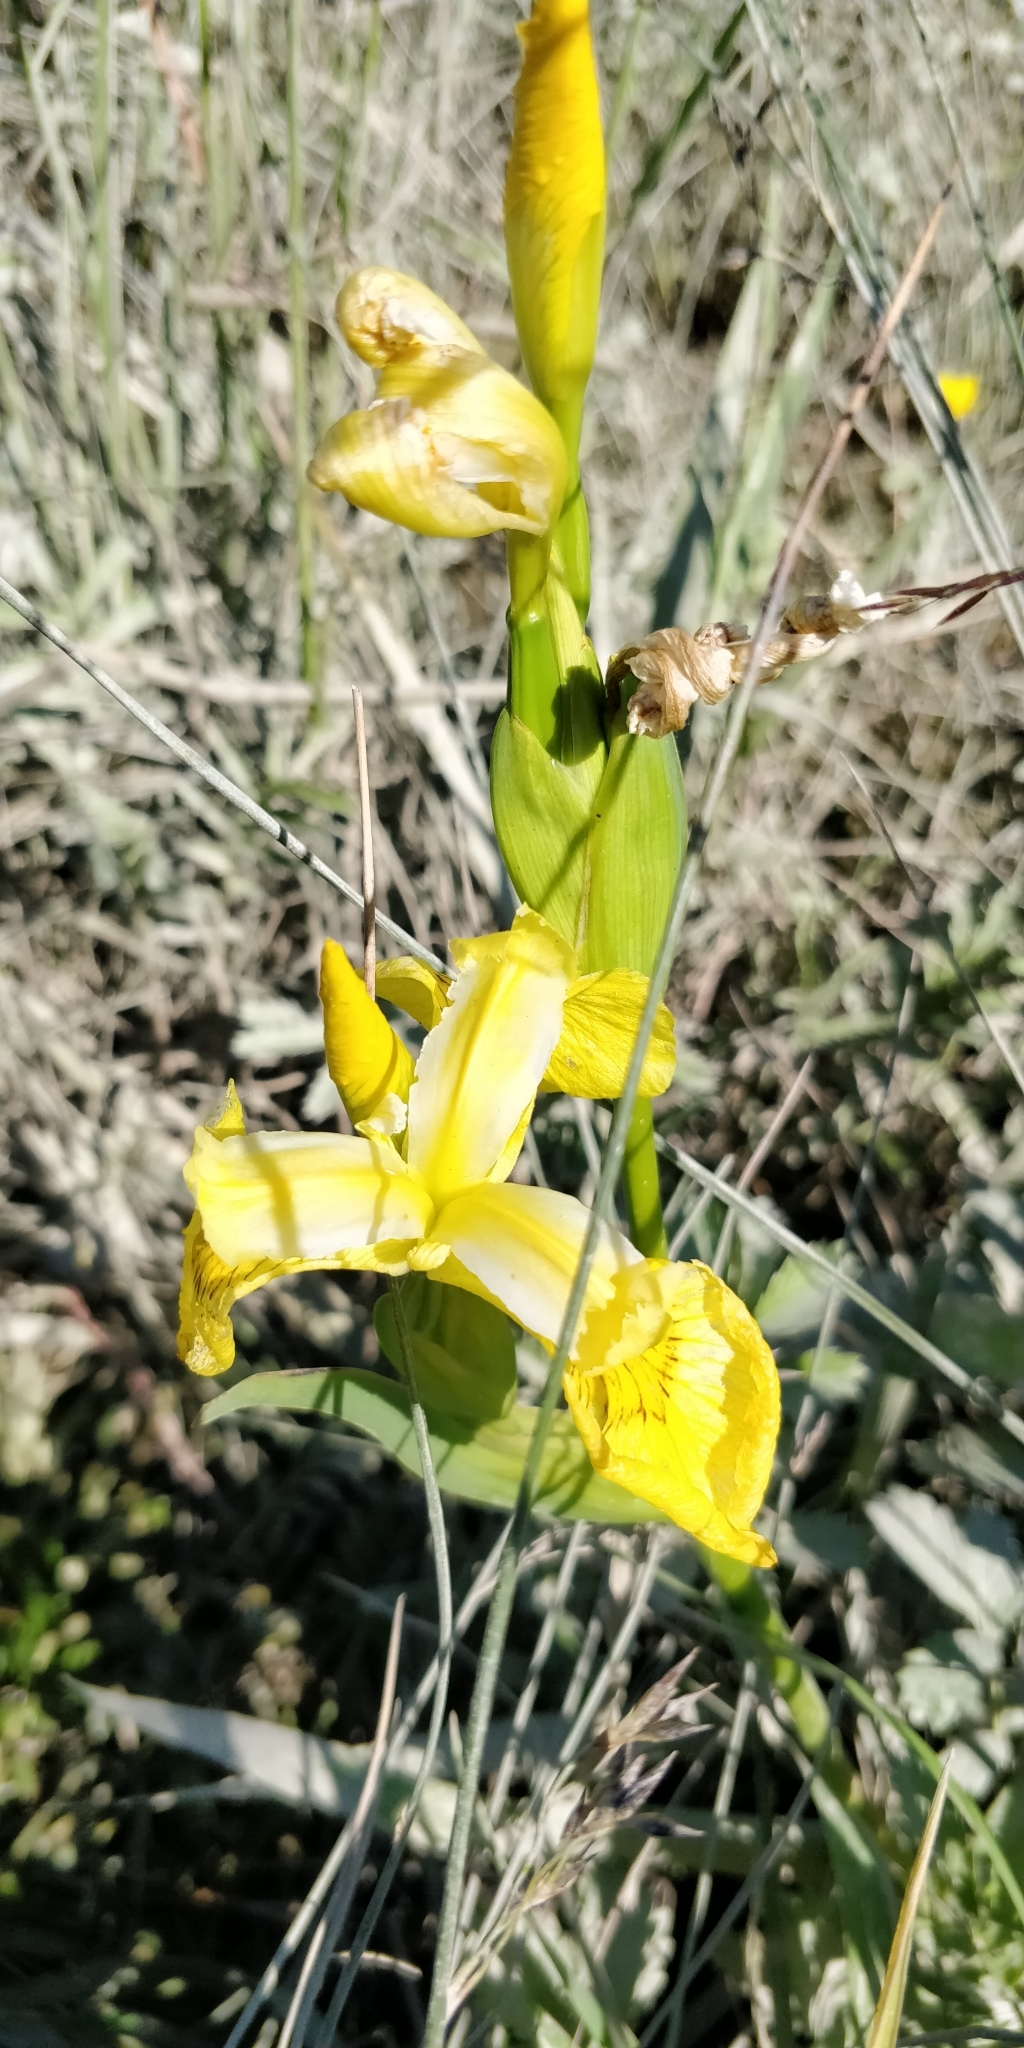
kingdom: Plantae
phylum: Tracheophyta
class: Liliopsida
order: Asparagales
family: Iridaceae
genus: Iris
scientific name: Iris pseudacorus
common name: Yellow flag
